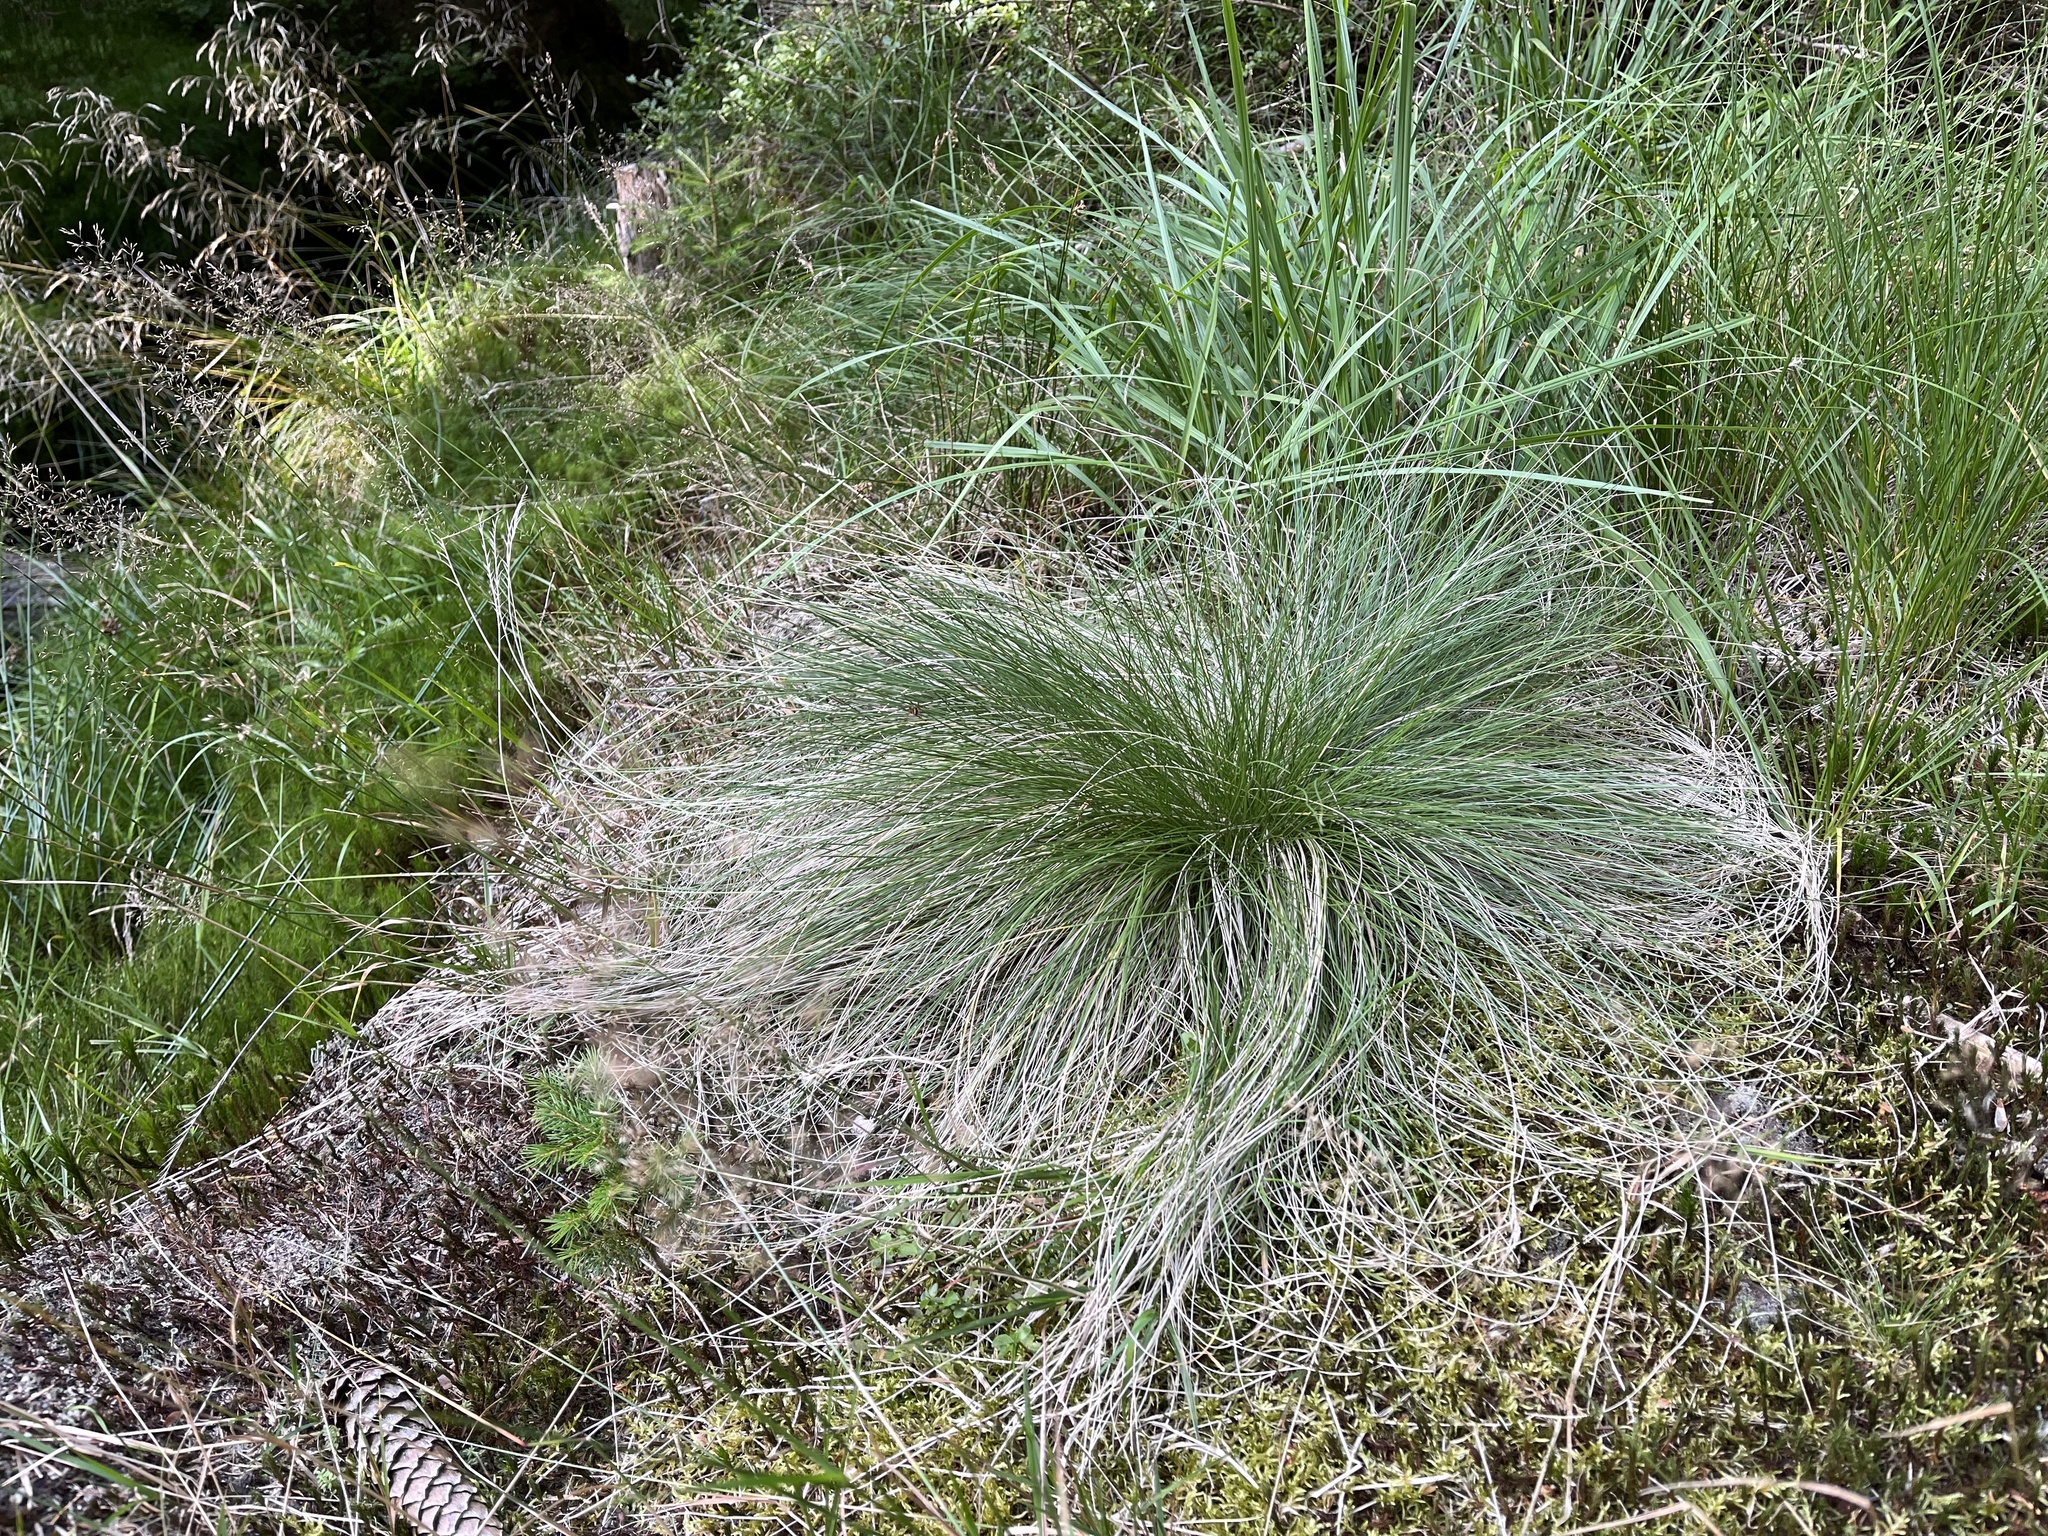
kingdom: Plantae
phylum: Tracheophyta
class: Liliopsida
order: Poales
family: Poaceae
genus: Nardus
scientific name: Nardus stricta
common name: Mat-grass
